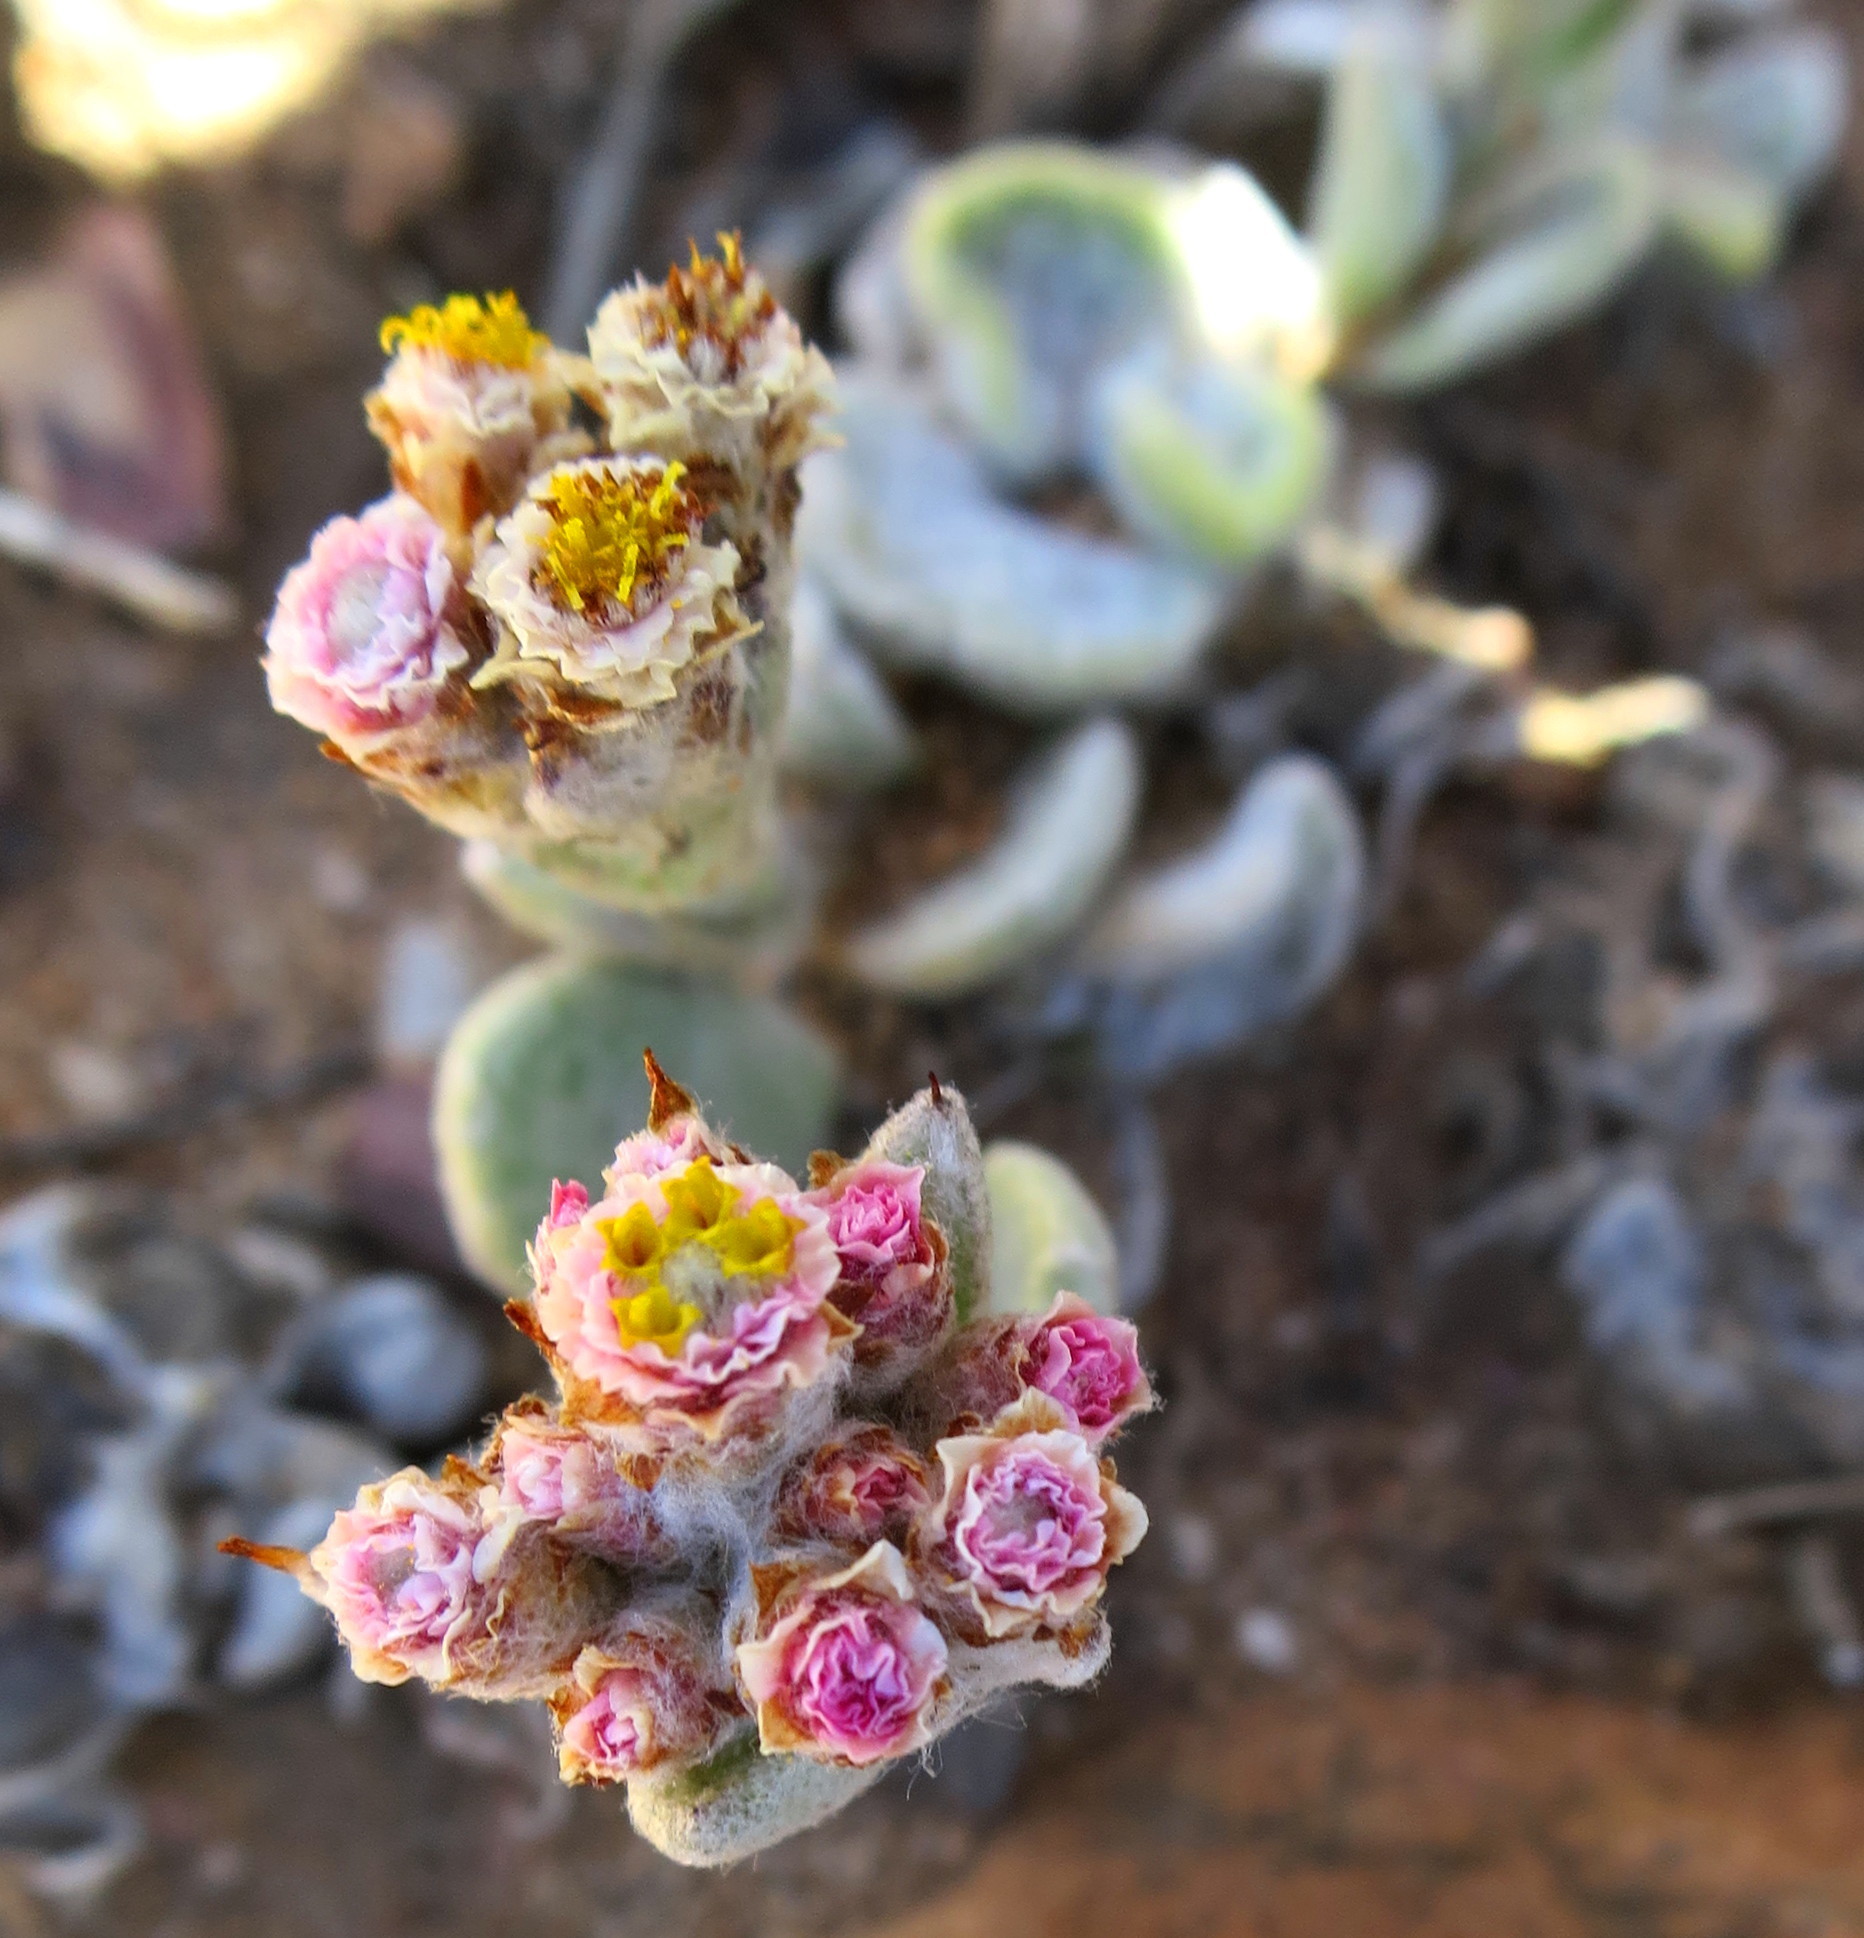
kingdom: Plantae
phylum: Tracheophyta
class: Magnoliopsida
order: Asterales
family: Asteraceae
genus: Helichrysum
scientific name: Helichrysum rotundifolium
